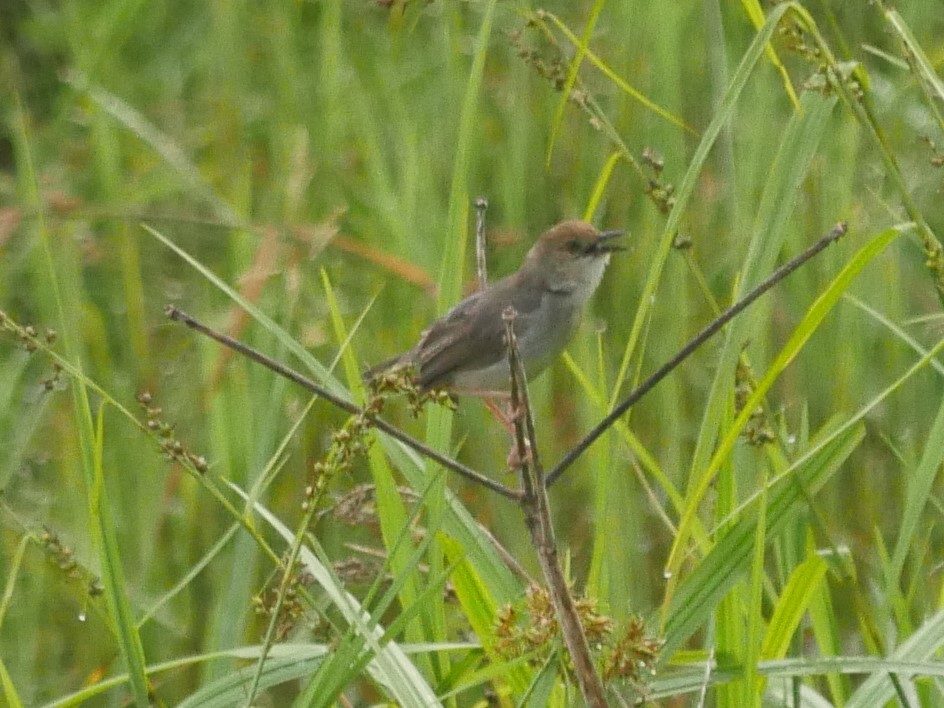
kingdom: Animalia
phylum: Chordata
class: Aves
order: Passeriformes
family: Cisticolidae
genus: Cisticola
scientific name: Cisticola anonymus
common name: Chattering cisticola
